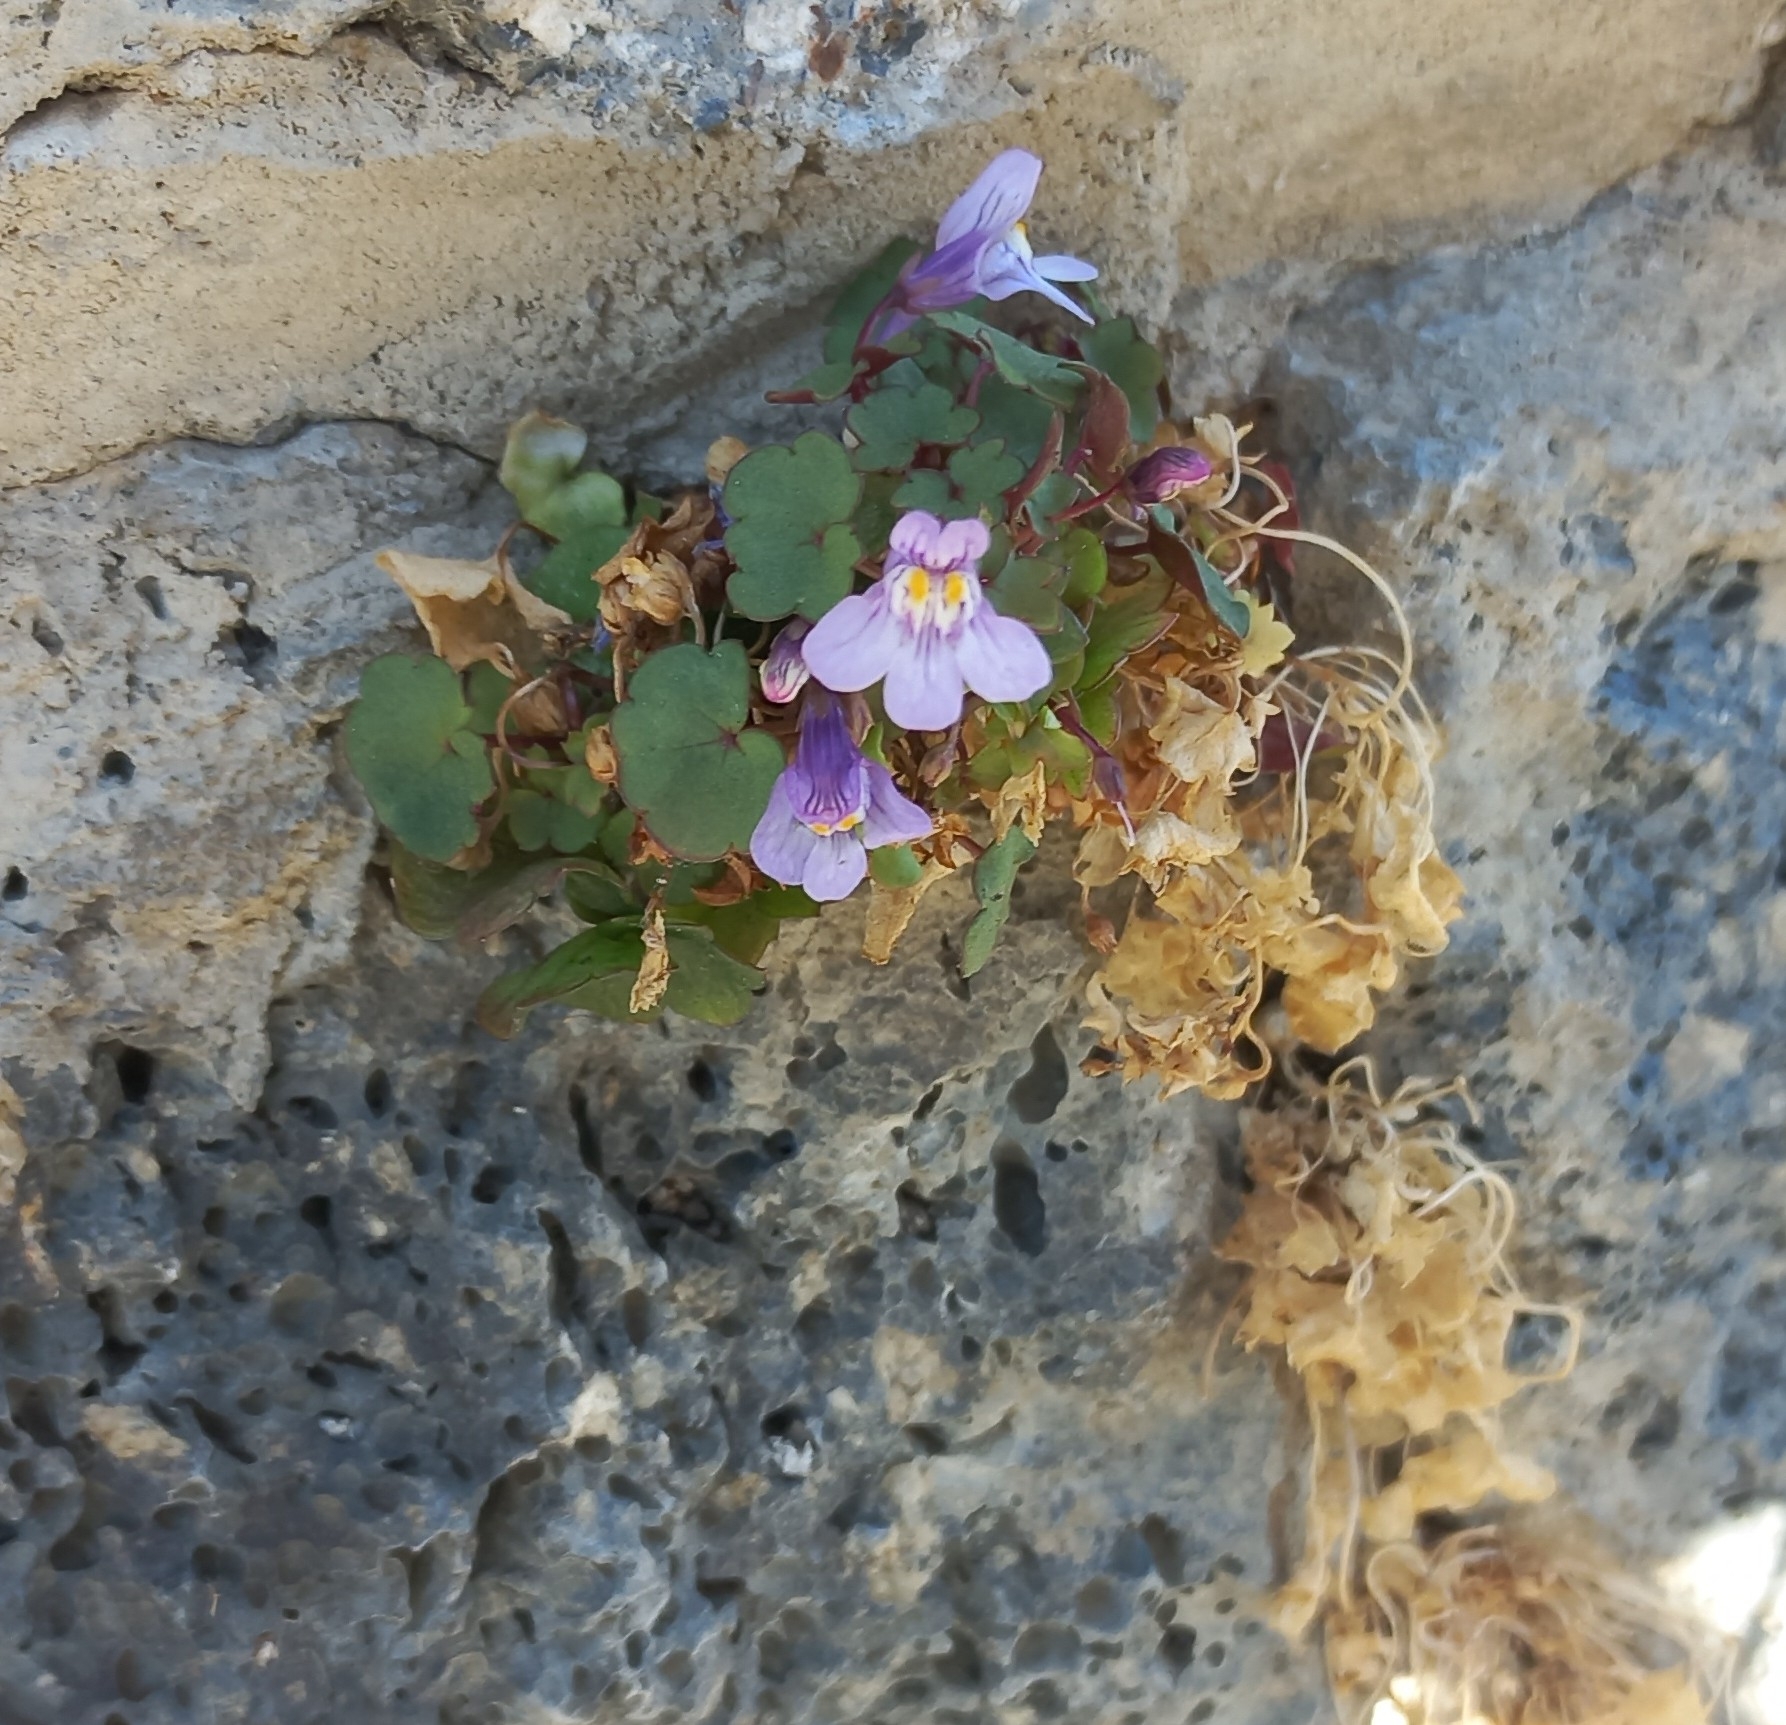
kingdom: Plantae
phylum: Tracheophyta
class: Magnoliopsida
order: Lamiales
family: Plantaginaceae
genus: Cymbalaria
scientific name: Cymbalaria muralis
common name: Ivy-leaved toadflax
